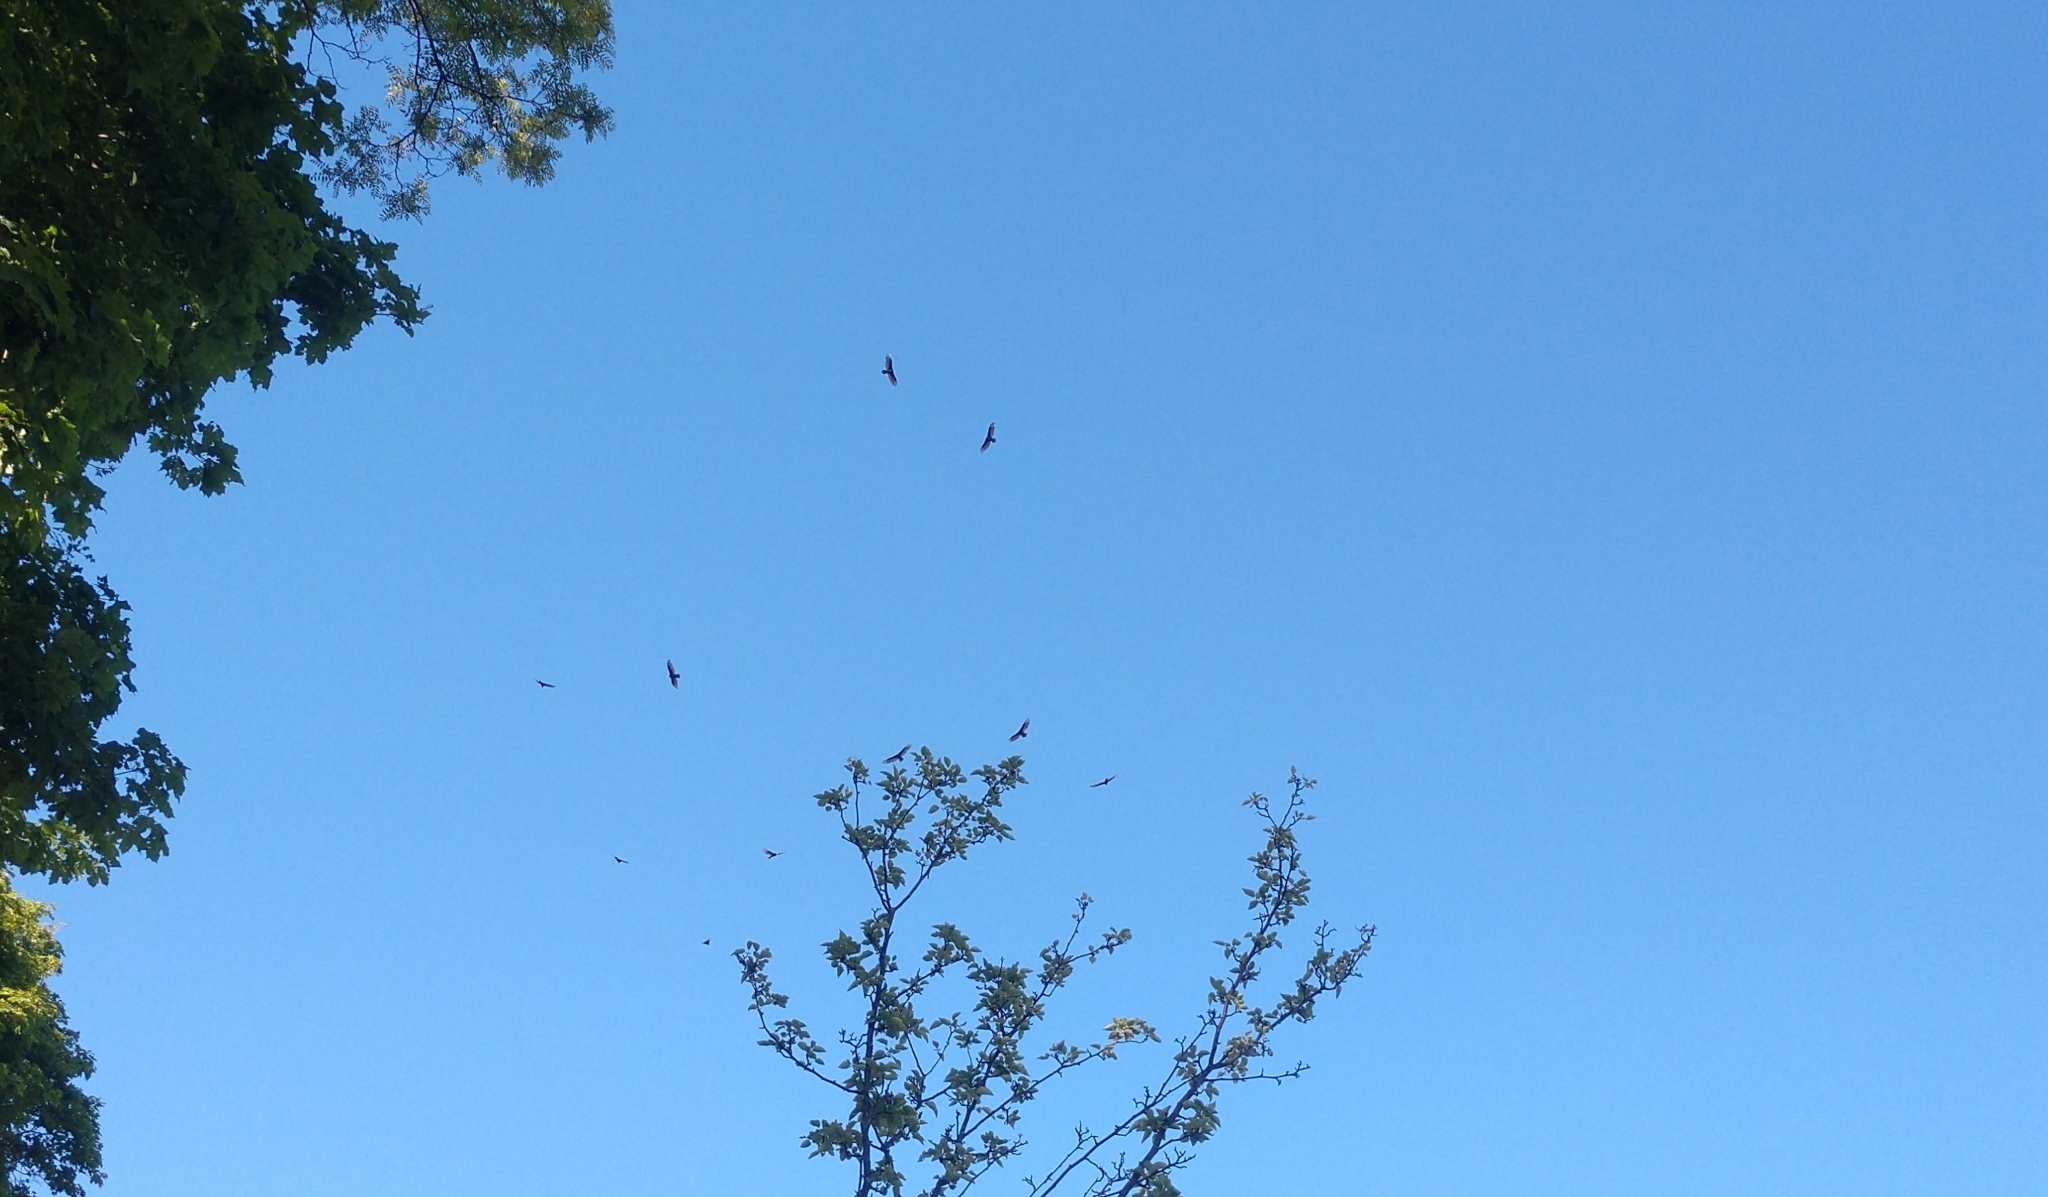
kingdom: Animalia
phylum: Chordata
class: Aves
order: Accipitriformes
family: Cathartidae
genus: Cathartes
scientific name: Cathartes aura
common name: Turkey vulture
